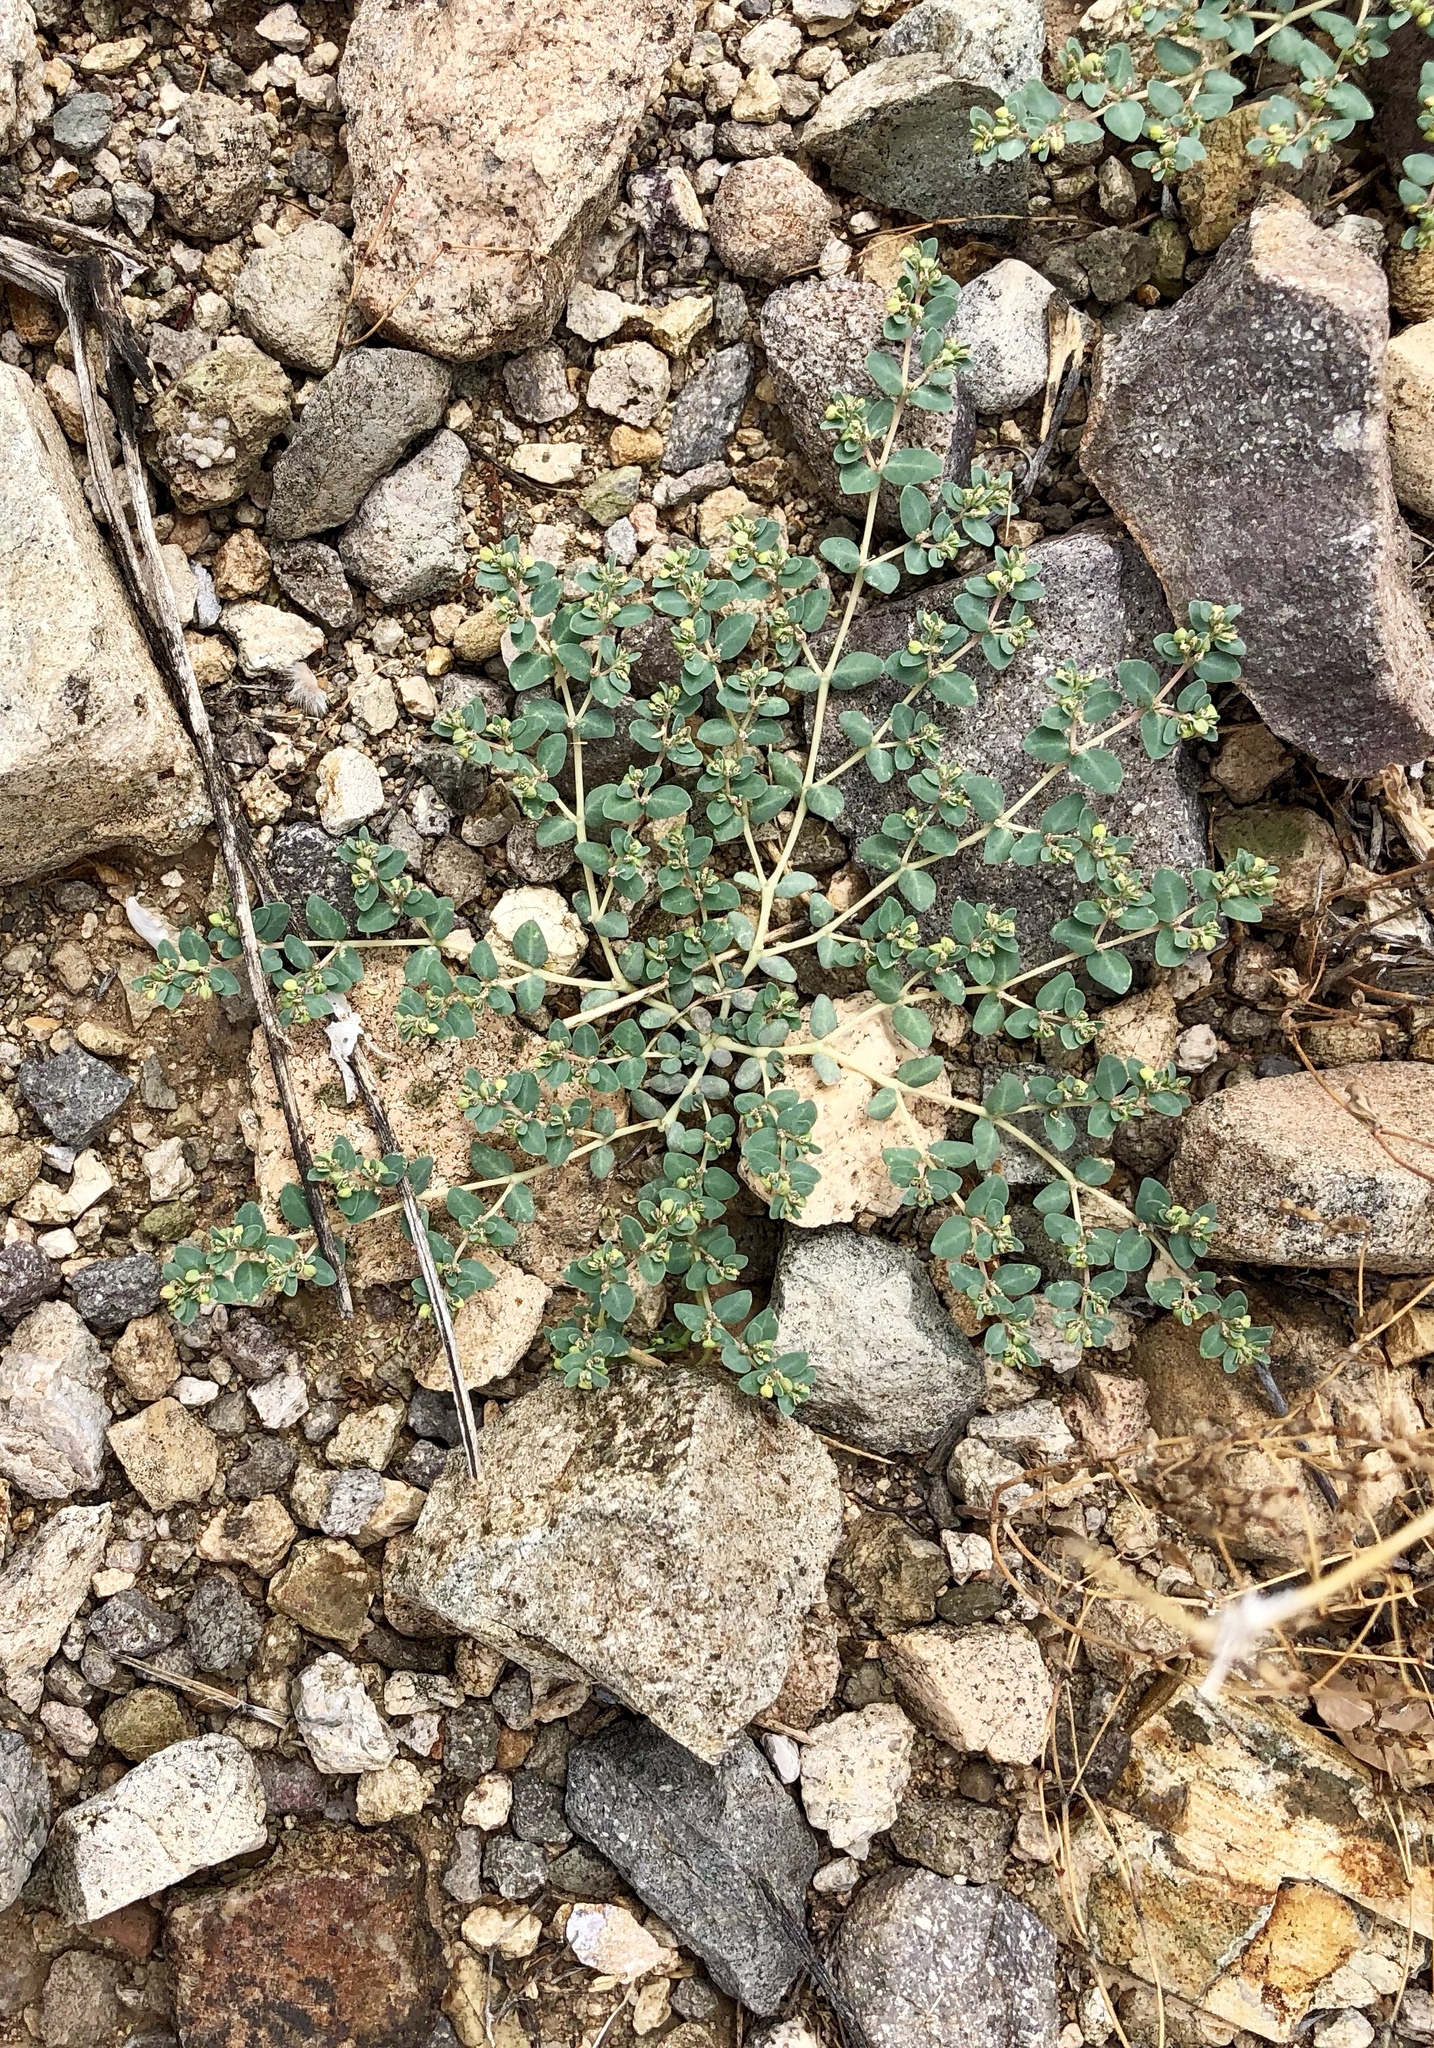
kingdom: Plantae
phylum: Tracheophyta
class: Magnoliopsida
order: Malpighiales
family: Euphorbiaceae
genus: Euphorbia
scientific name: Euphorbia micromera
